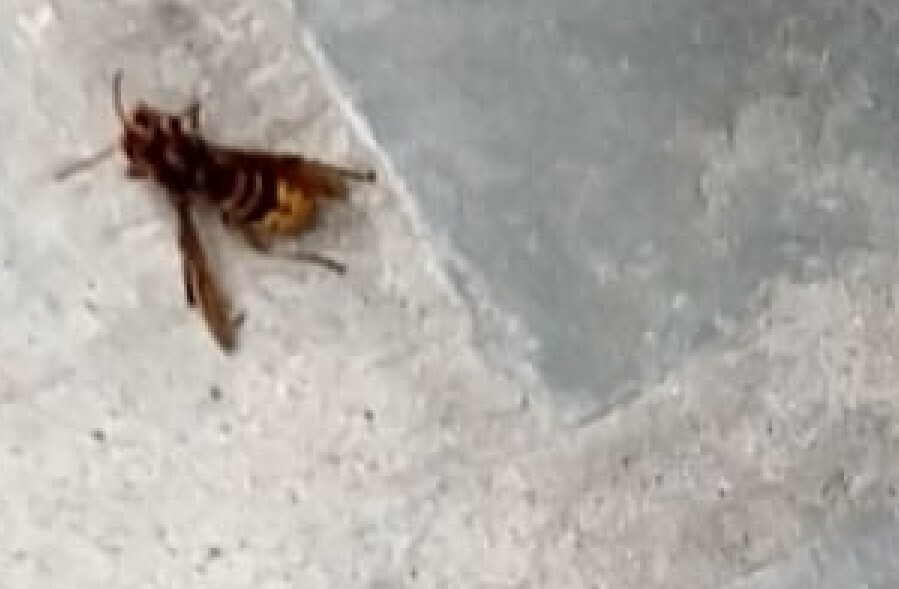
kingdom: Animalia
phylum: Arthropoda
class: Insecta
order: Hymenoptera
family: Vespidae
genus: Vespa
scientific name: Vespa crabro
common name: Hornet
